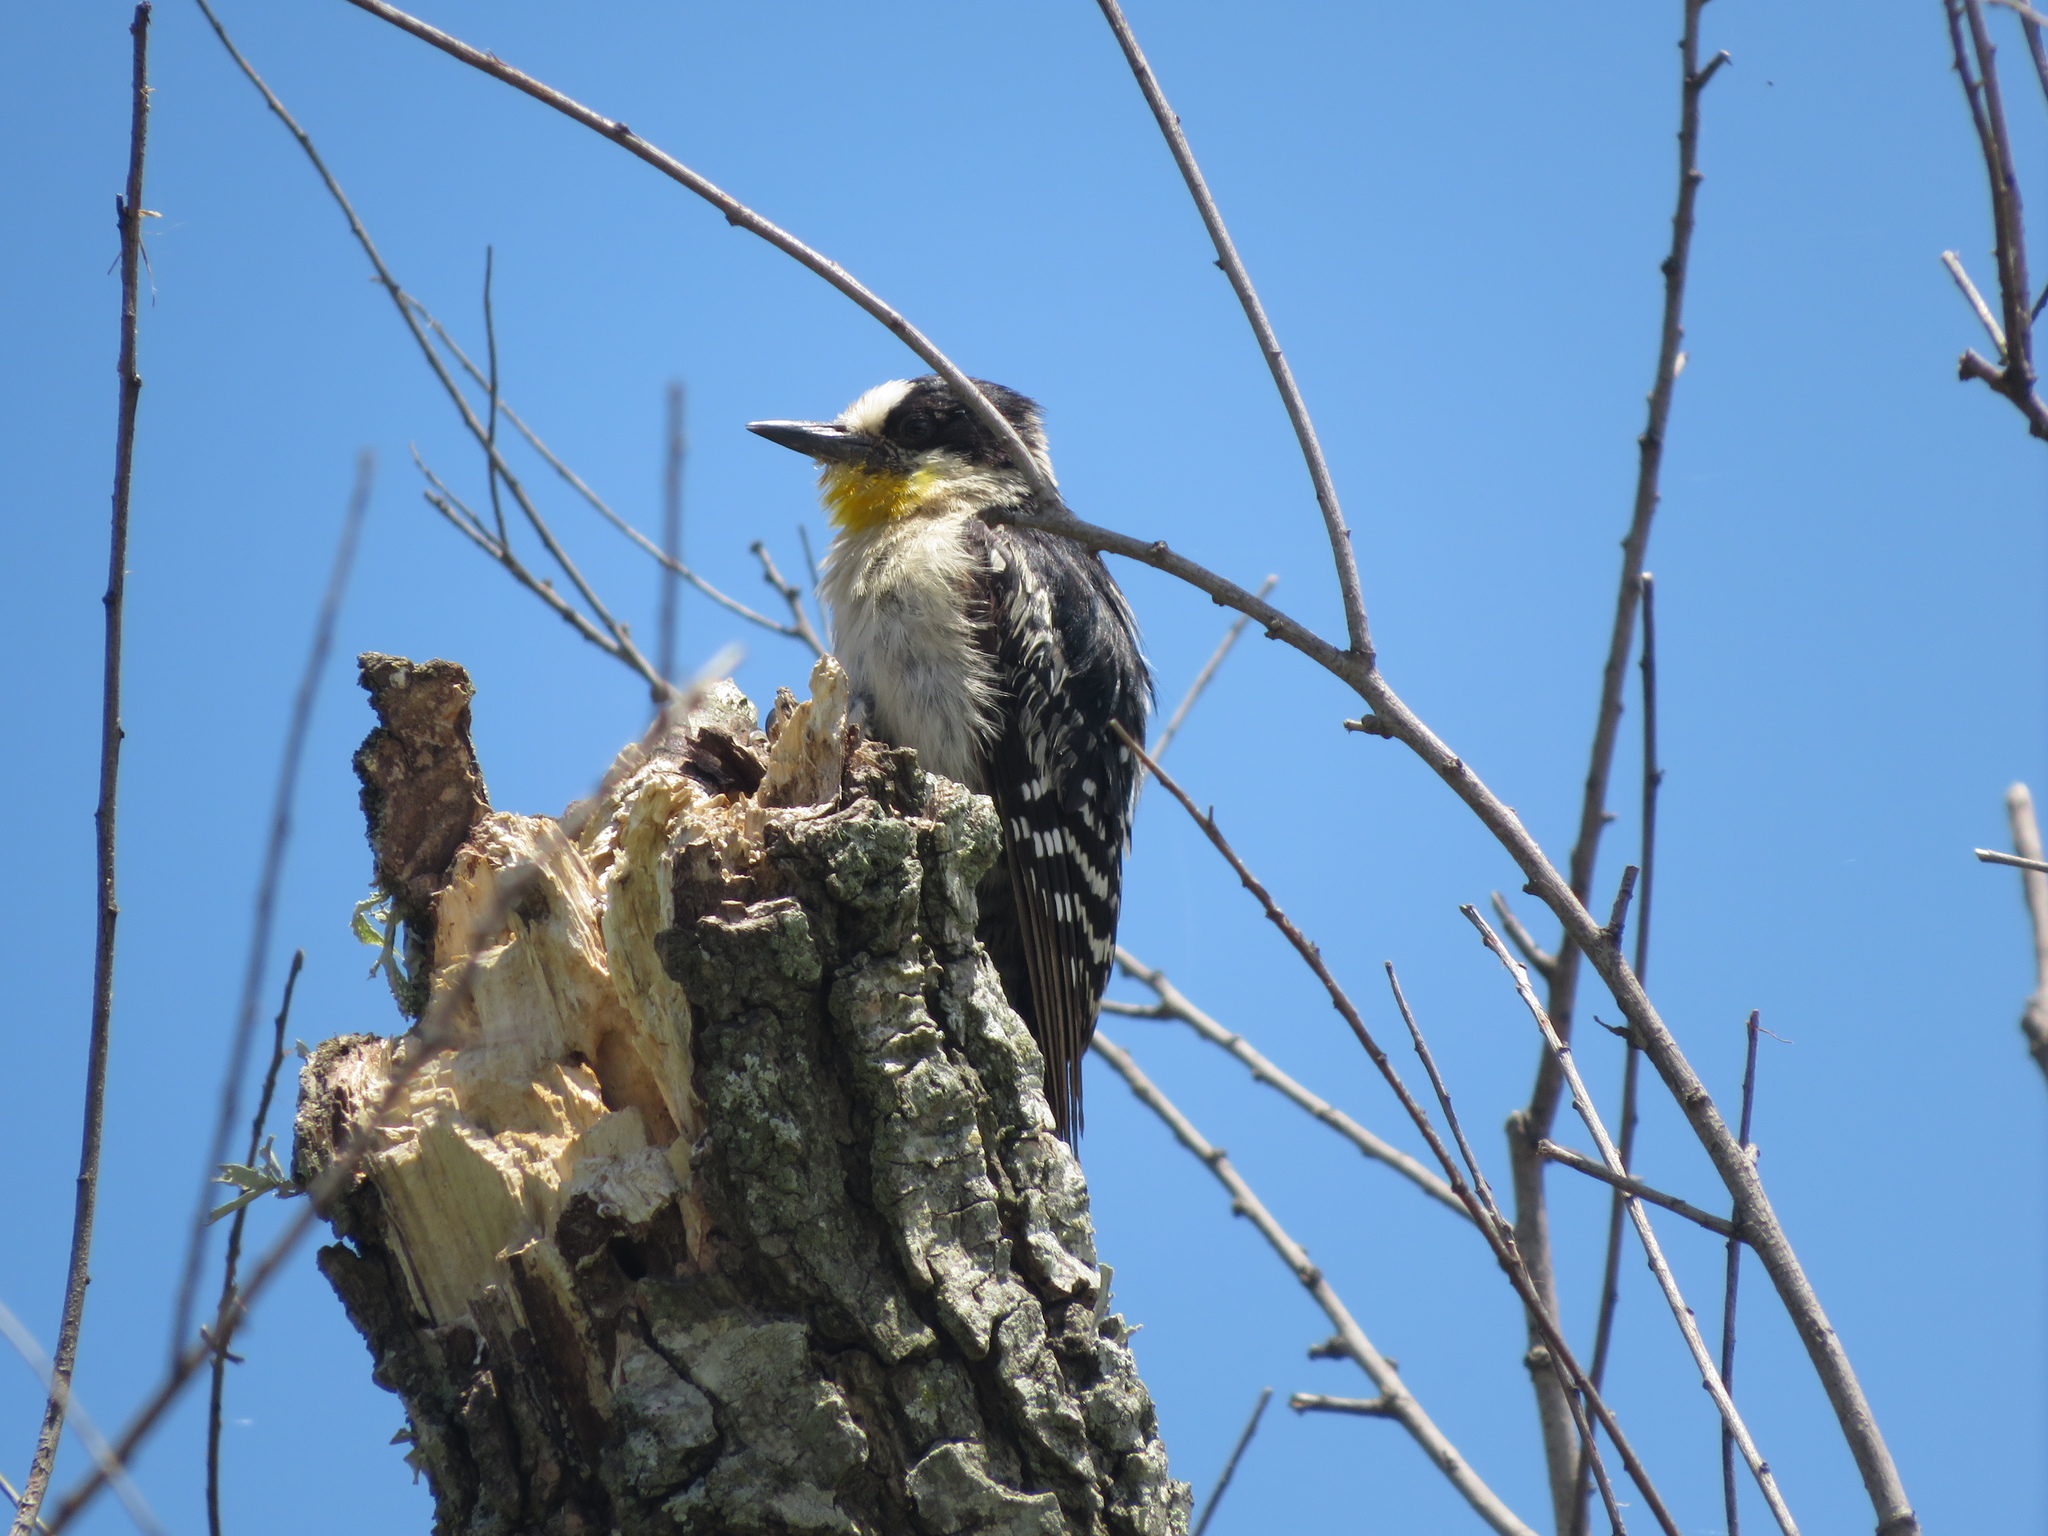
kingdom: Animalia
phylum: Chordata
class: Aves
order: Piciformes
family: Picidae
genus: Melanerpes
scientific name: Melanerpes cactorum
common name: White-fronted woodpecker
